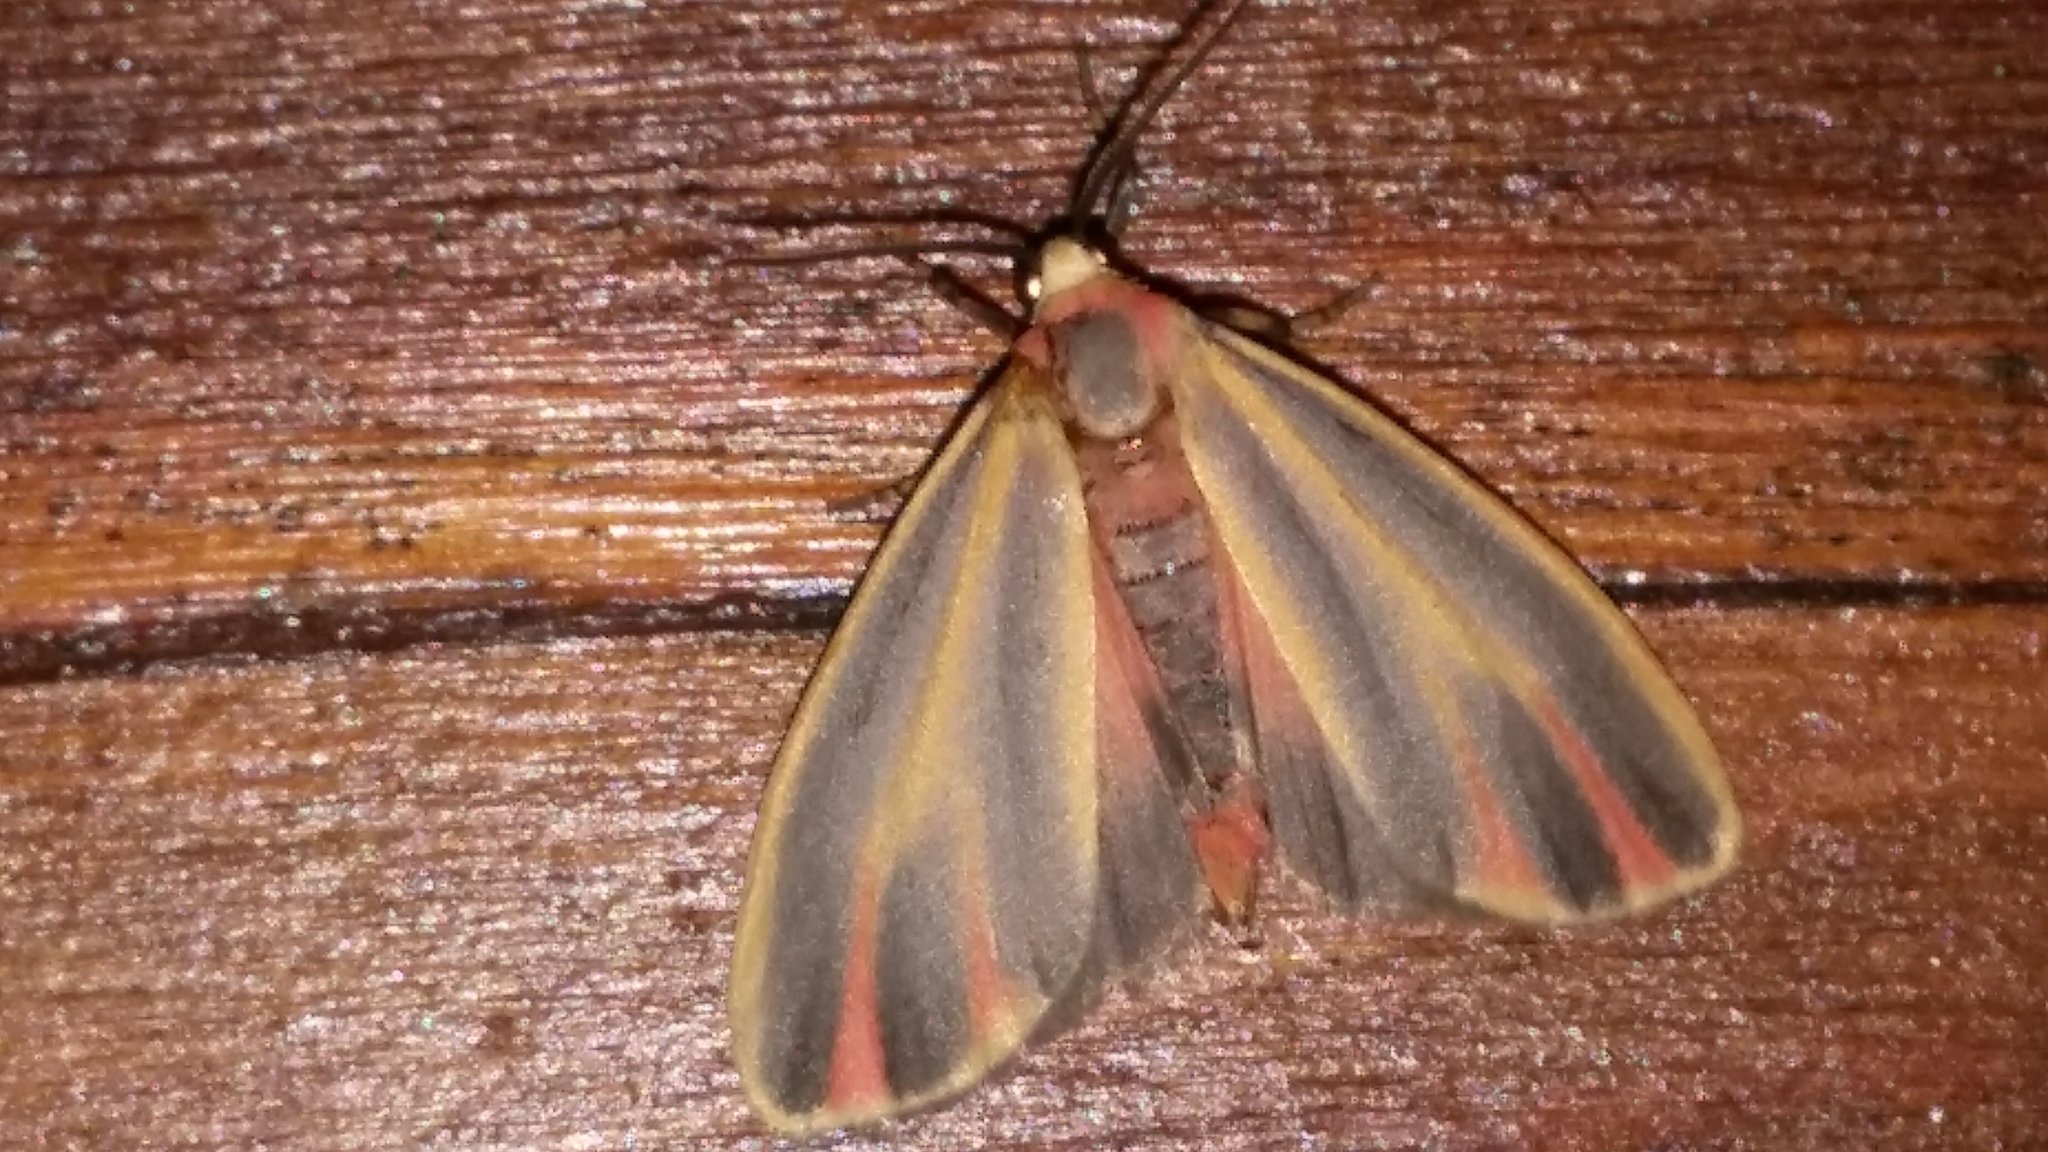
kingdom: Animalia
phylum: Arthropoda
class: Insecta
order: Lepidoptera
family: Erebidae
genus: Hypoprepia
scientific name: Hypoprepia fucosa
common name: Painted lichen moth
